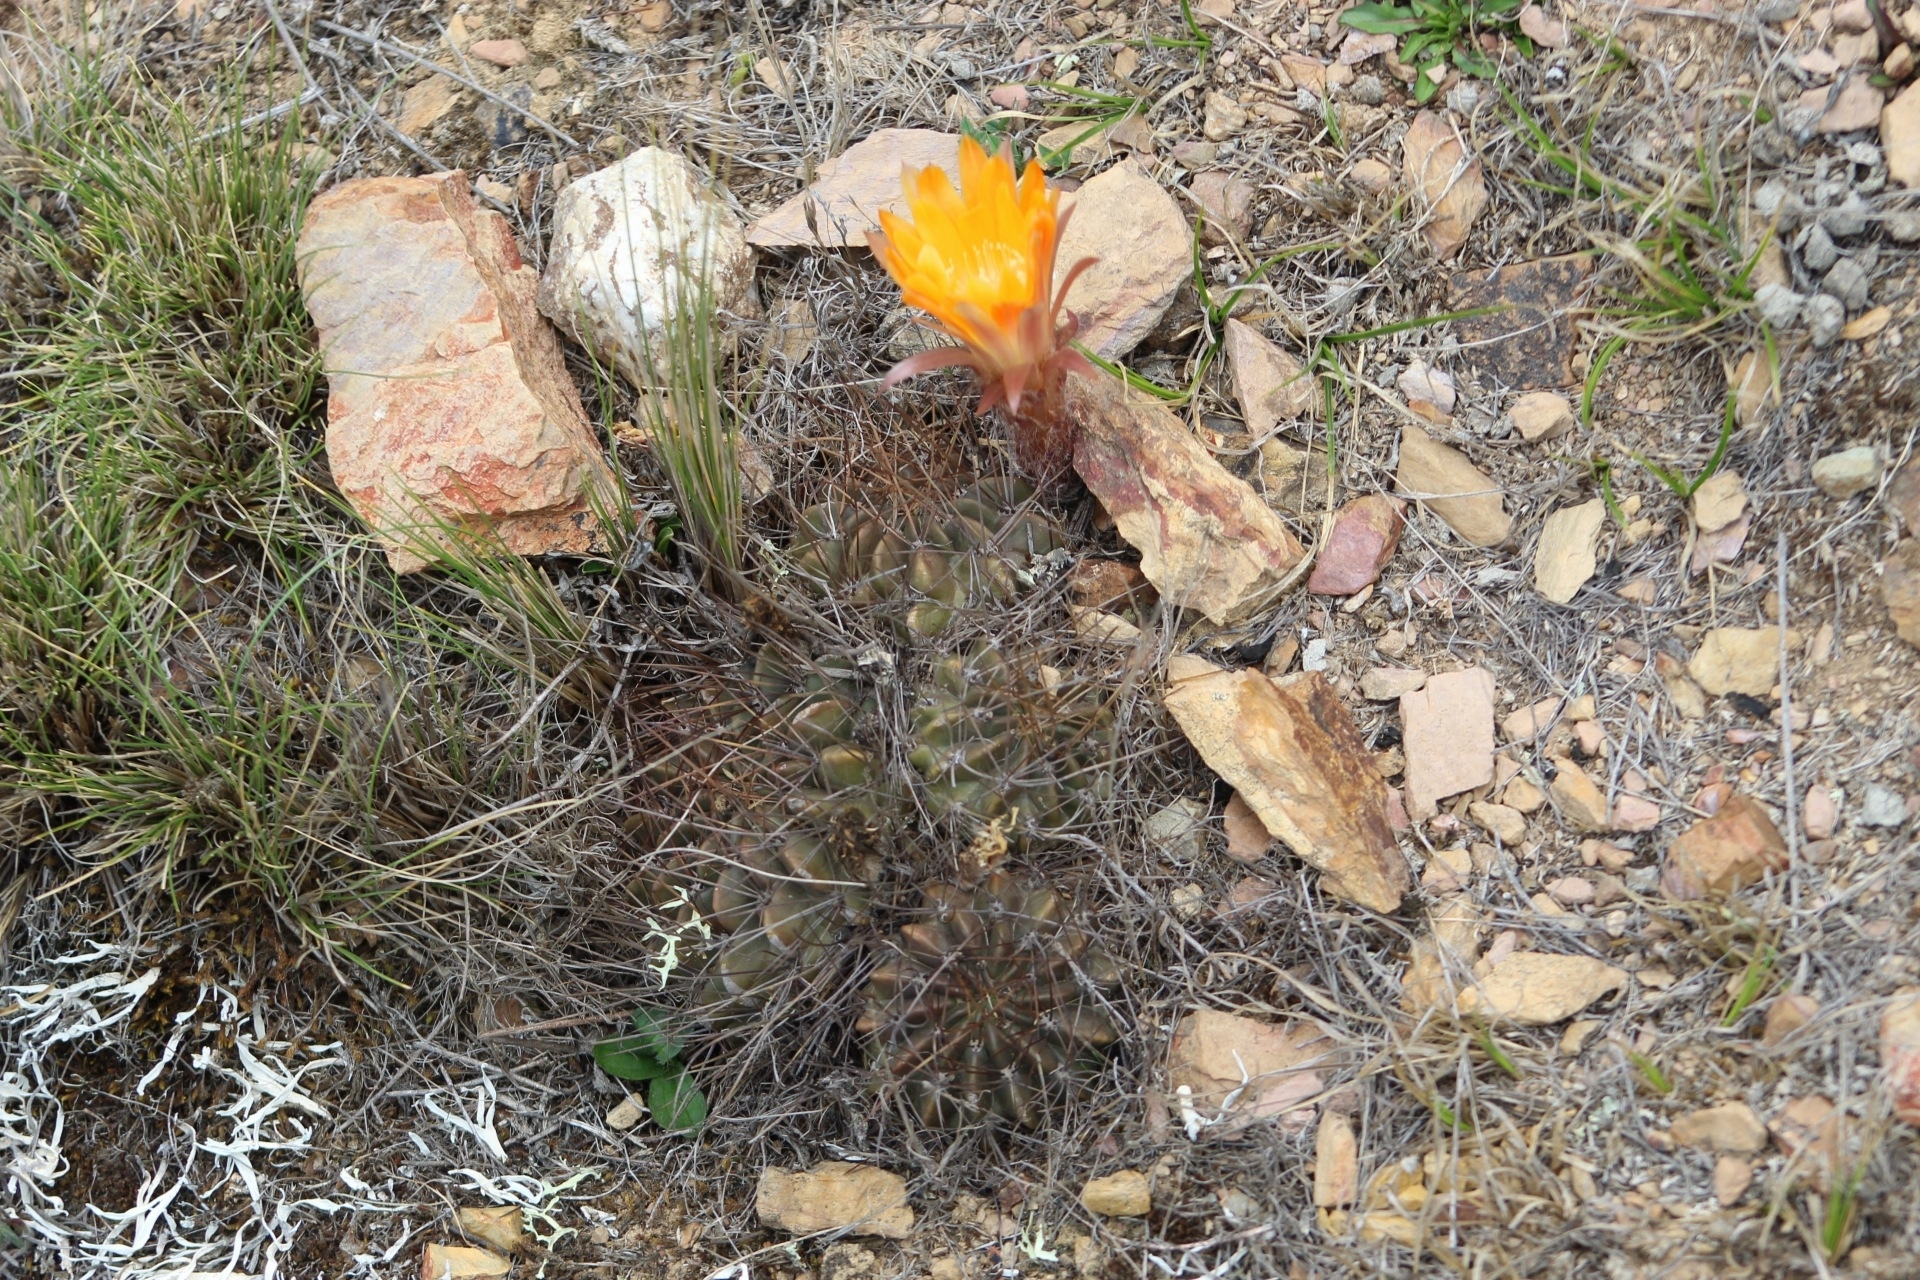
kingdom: Plantae
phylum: Tracheophyta
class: Magnoliopsida
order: Caryophyllales
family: Cactaceae
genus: Lobivia
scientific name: Lobivia maximiliana
